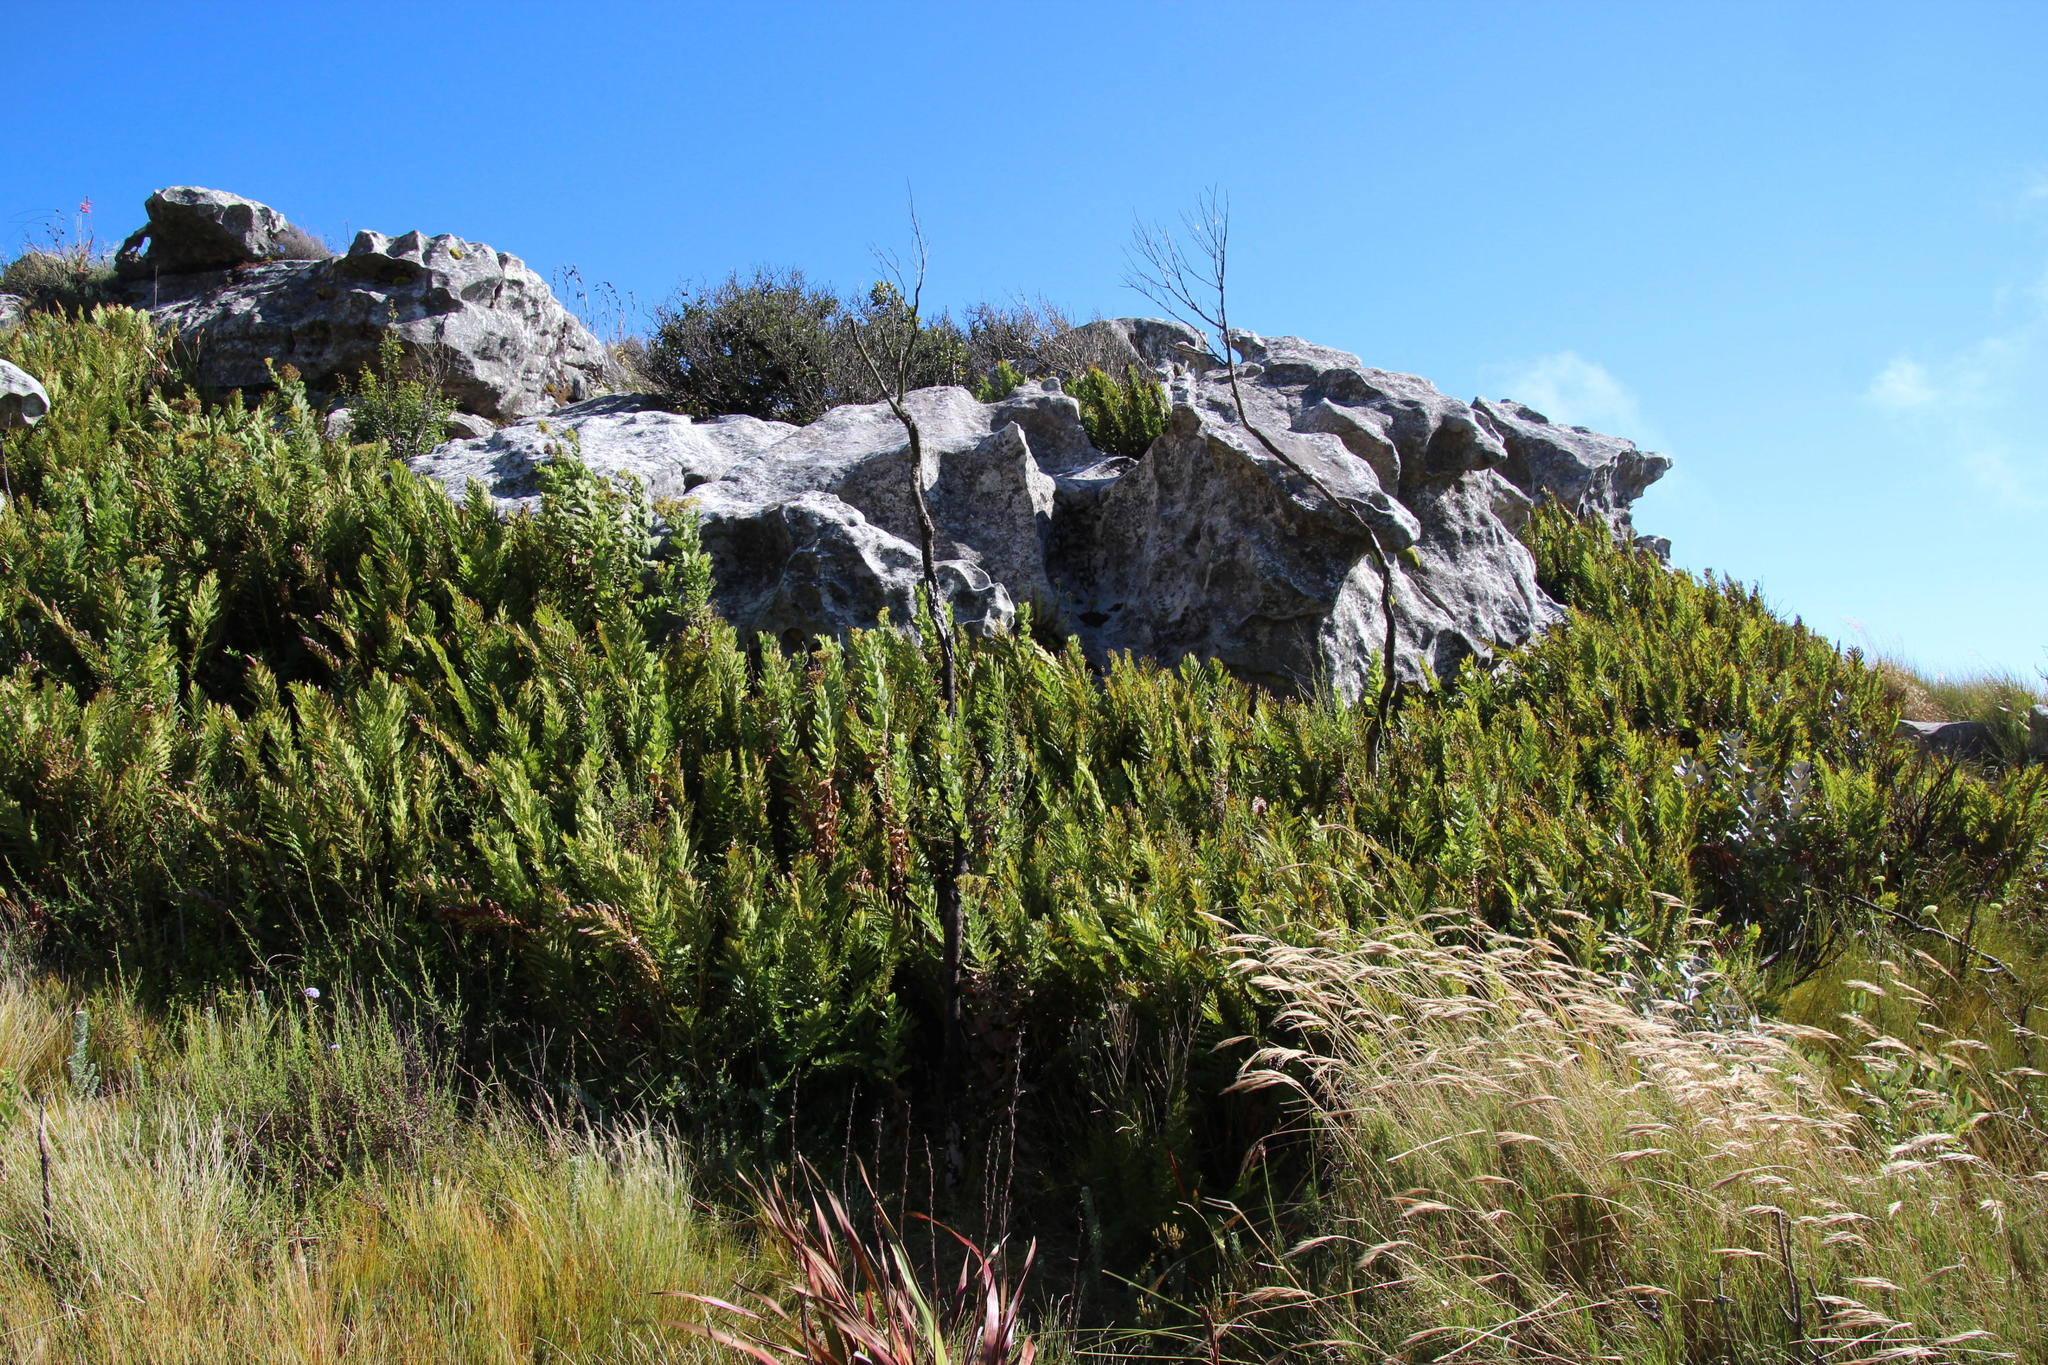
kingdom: Plantae
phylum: Tracheophyta
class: Polypodiopsida
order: Osmundales
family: Osmundaceae
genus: Todea
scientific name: Todea barbara
